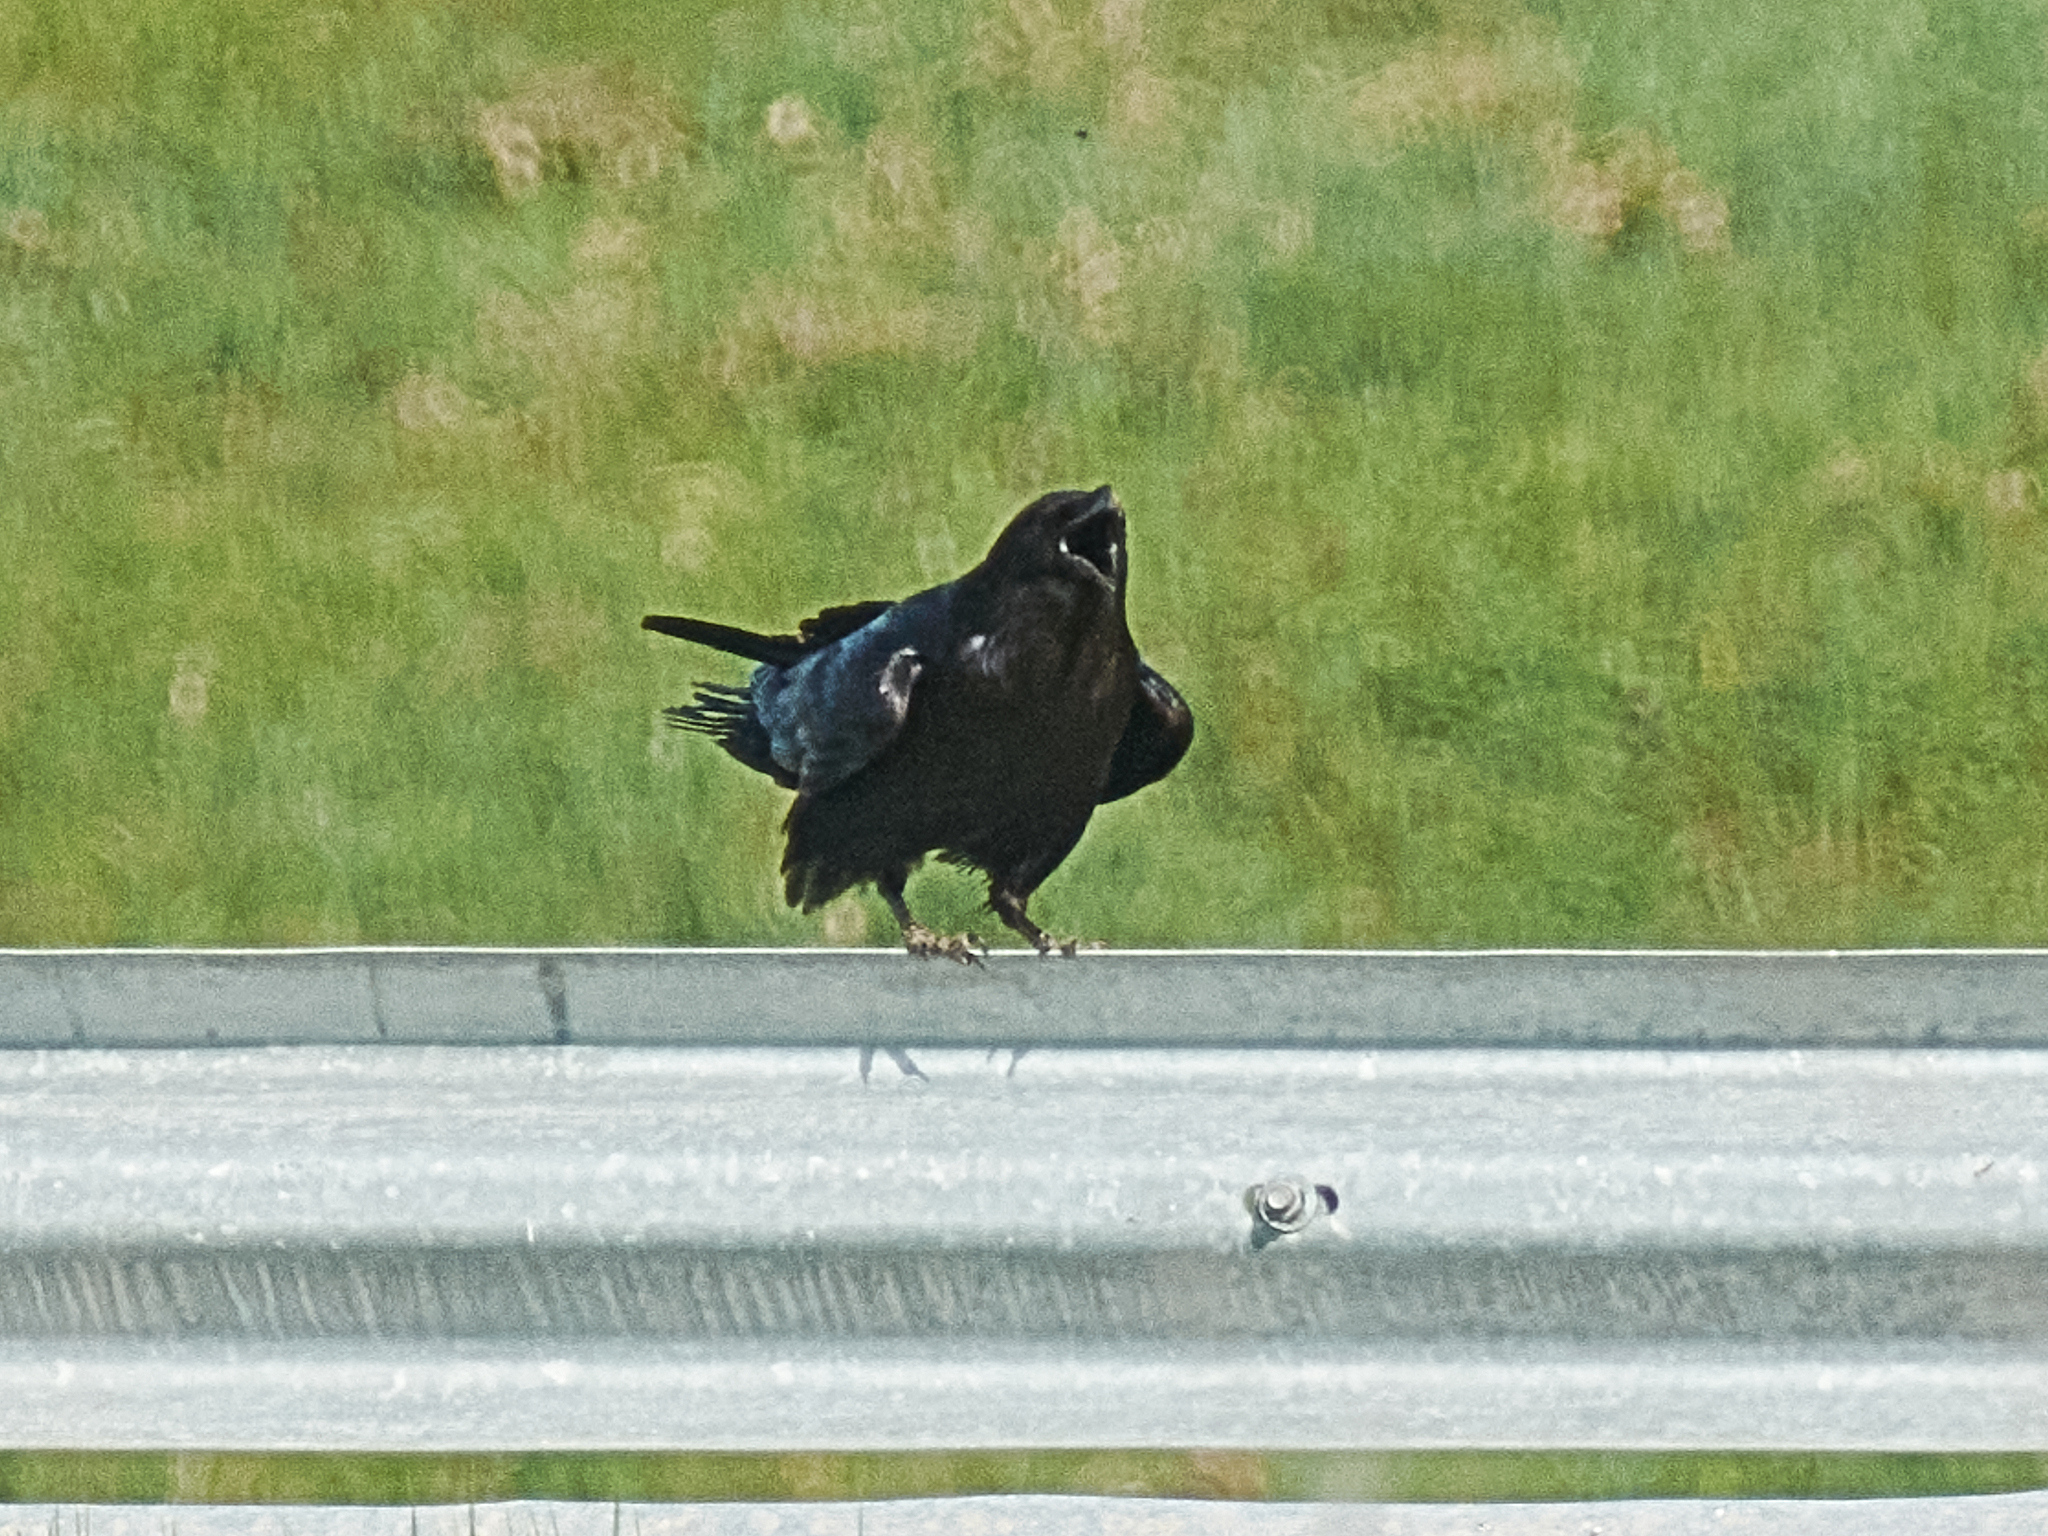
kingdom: Animalia
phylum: Chordata
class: Aves
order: Passeriformes
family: Corvidae
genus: Corvus
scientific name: Corvus corax
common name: Common raven
